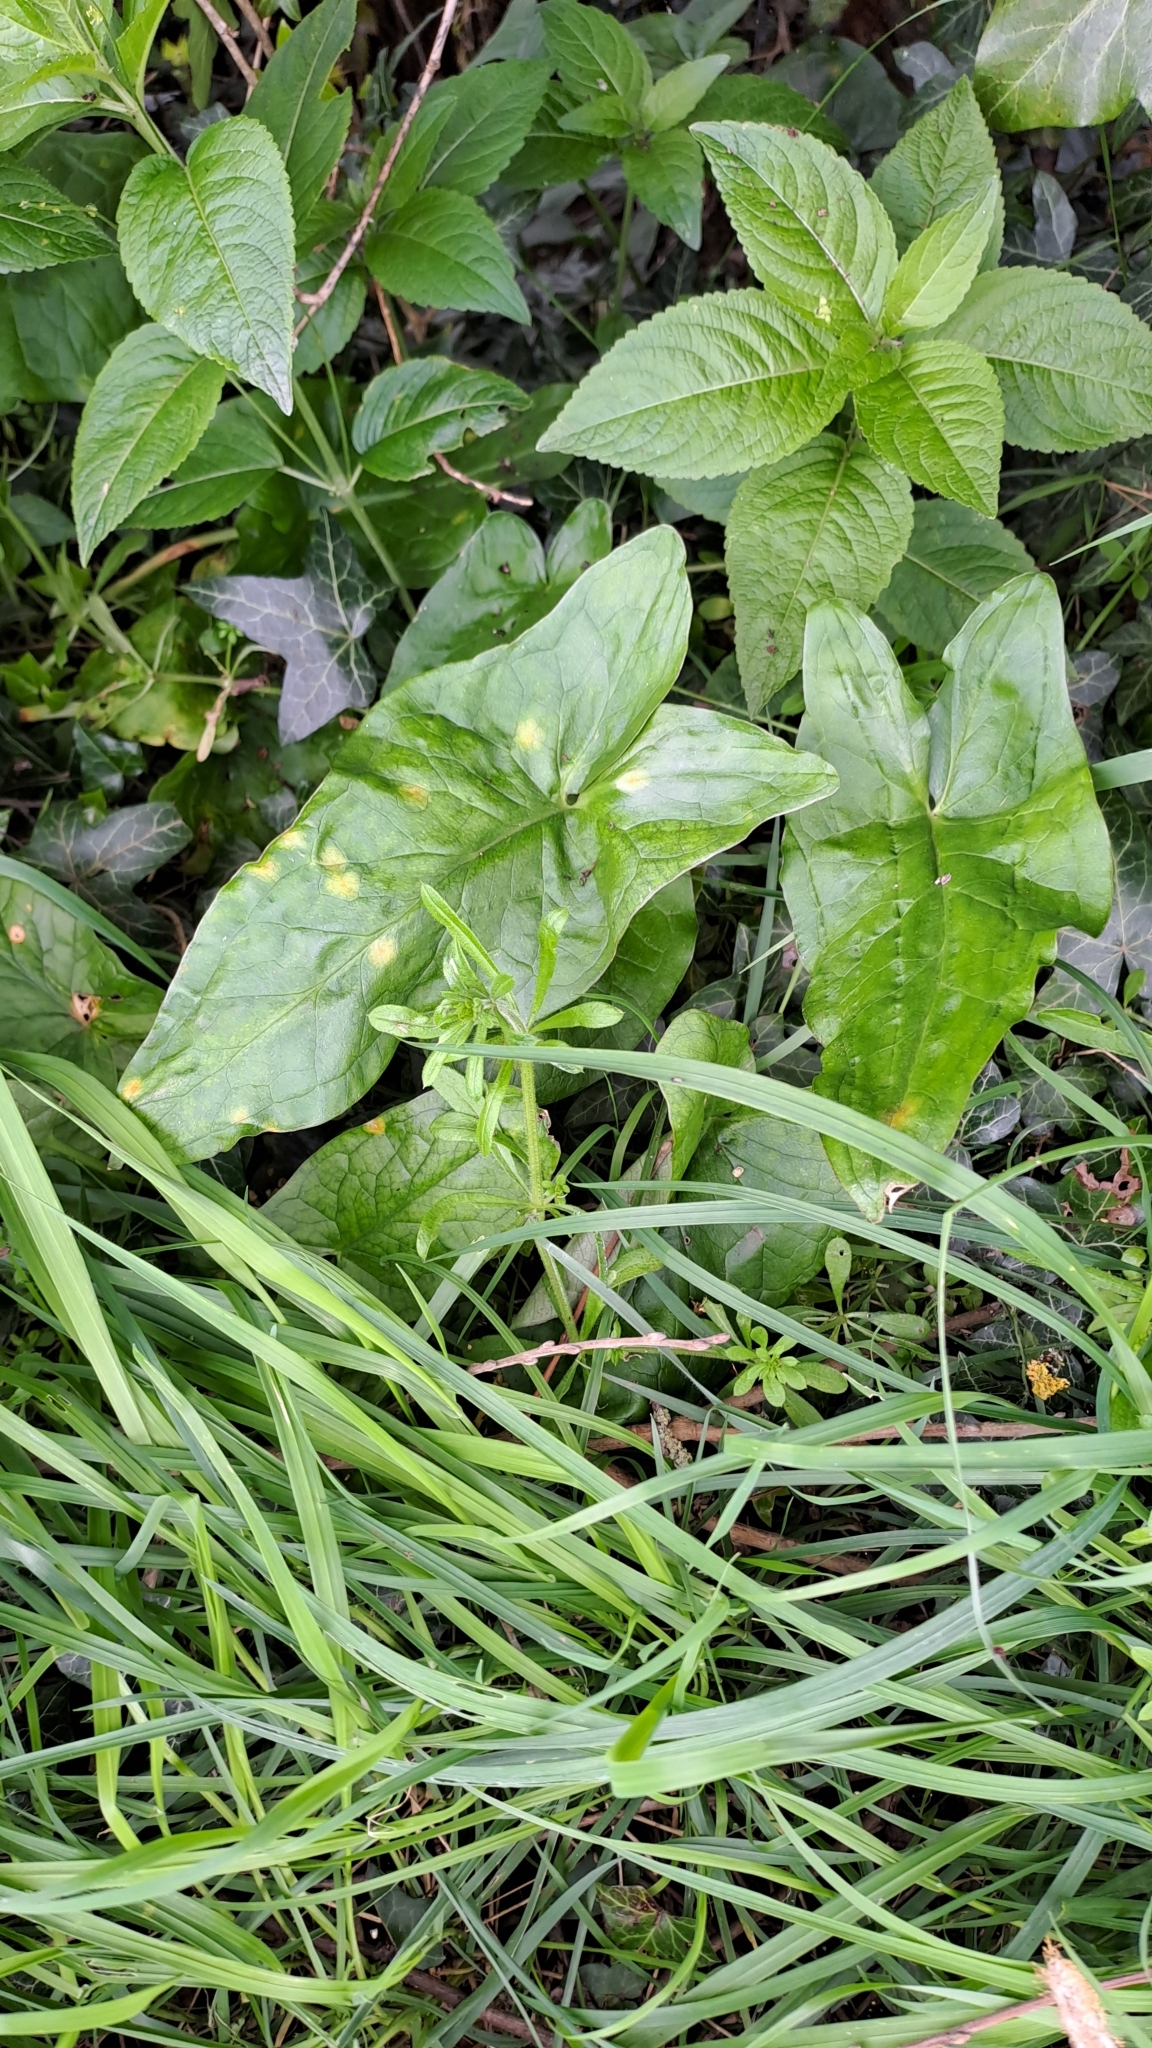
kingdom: Plantae
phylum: Tracheophyta
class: Liliopsida
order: Alismatales
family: Araceae
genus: Arum
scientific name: Arum maculatum
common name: Lords-and-ladies
